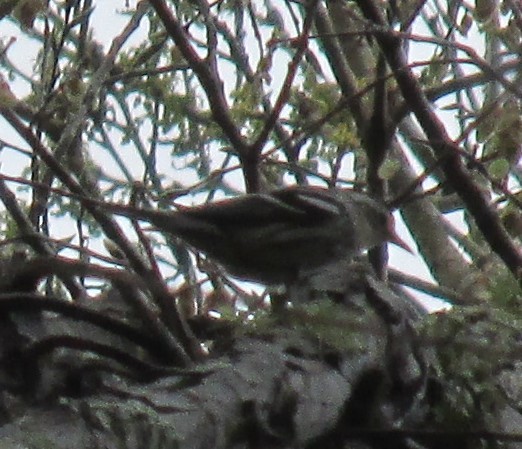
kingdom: Animalia
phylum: Chordata
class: Aves
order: Passeriformes
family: Parulidae
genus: Mniotilta
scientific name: Mniotilta varia
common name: Black-and-white warbler
